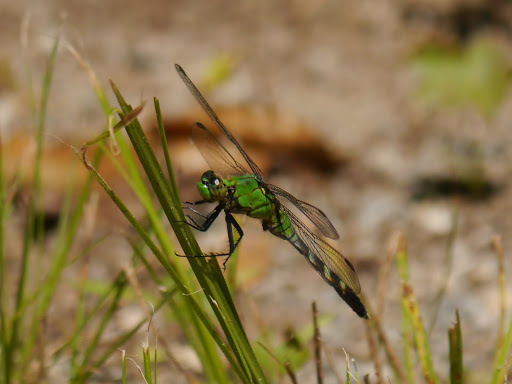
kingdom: Animalia
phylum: Arthropoda
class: Insecta
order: Odonata
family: Libellulidae
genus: Erythemis
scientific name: Erythemis simplicicollis
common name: Eastern pondhawk
